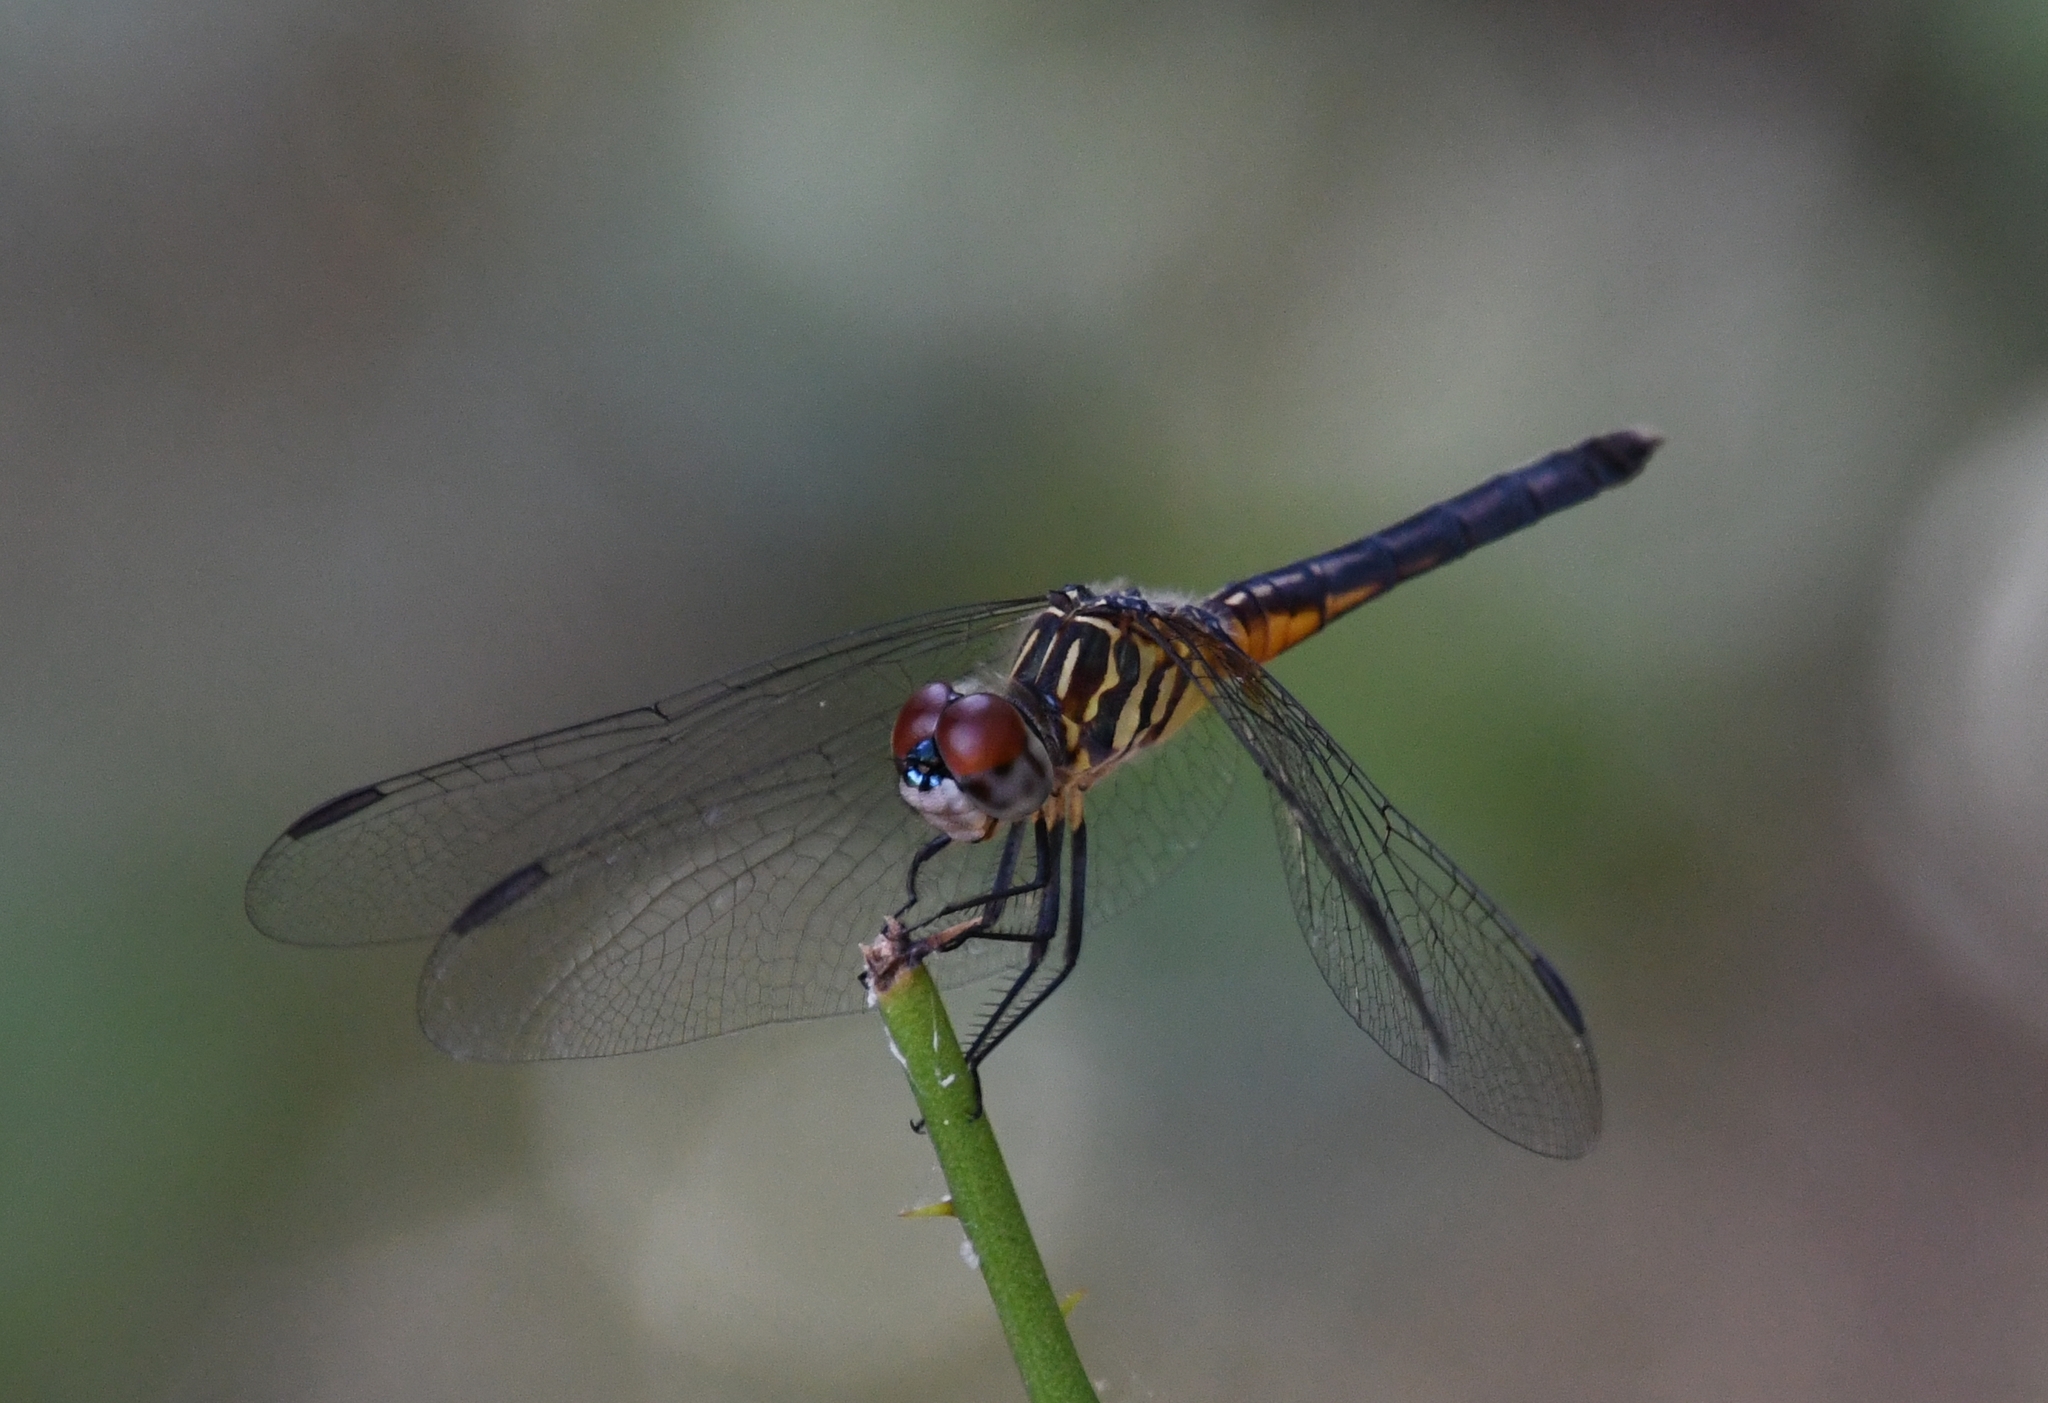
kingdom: Animalia
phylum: Arthropoda
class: Insecta
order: Odonata
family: Libellulidae
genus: Pachydiplax
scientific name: Pachydiplax longipennis
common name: Blue dasher
